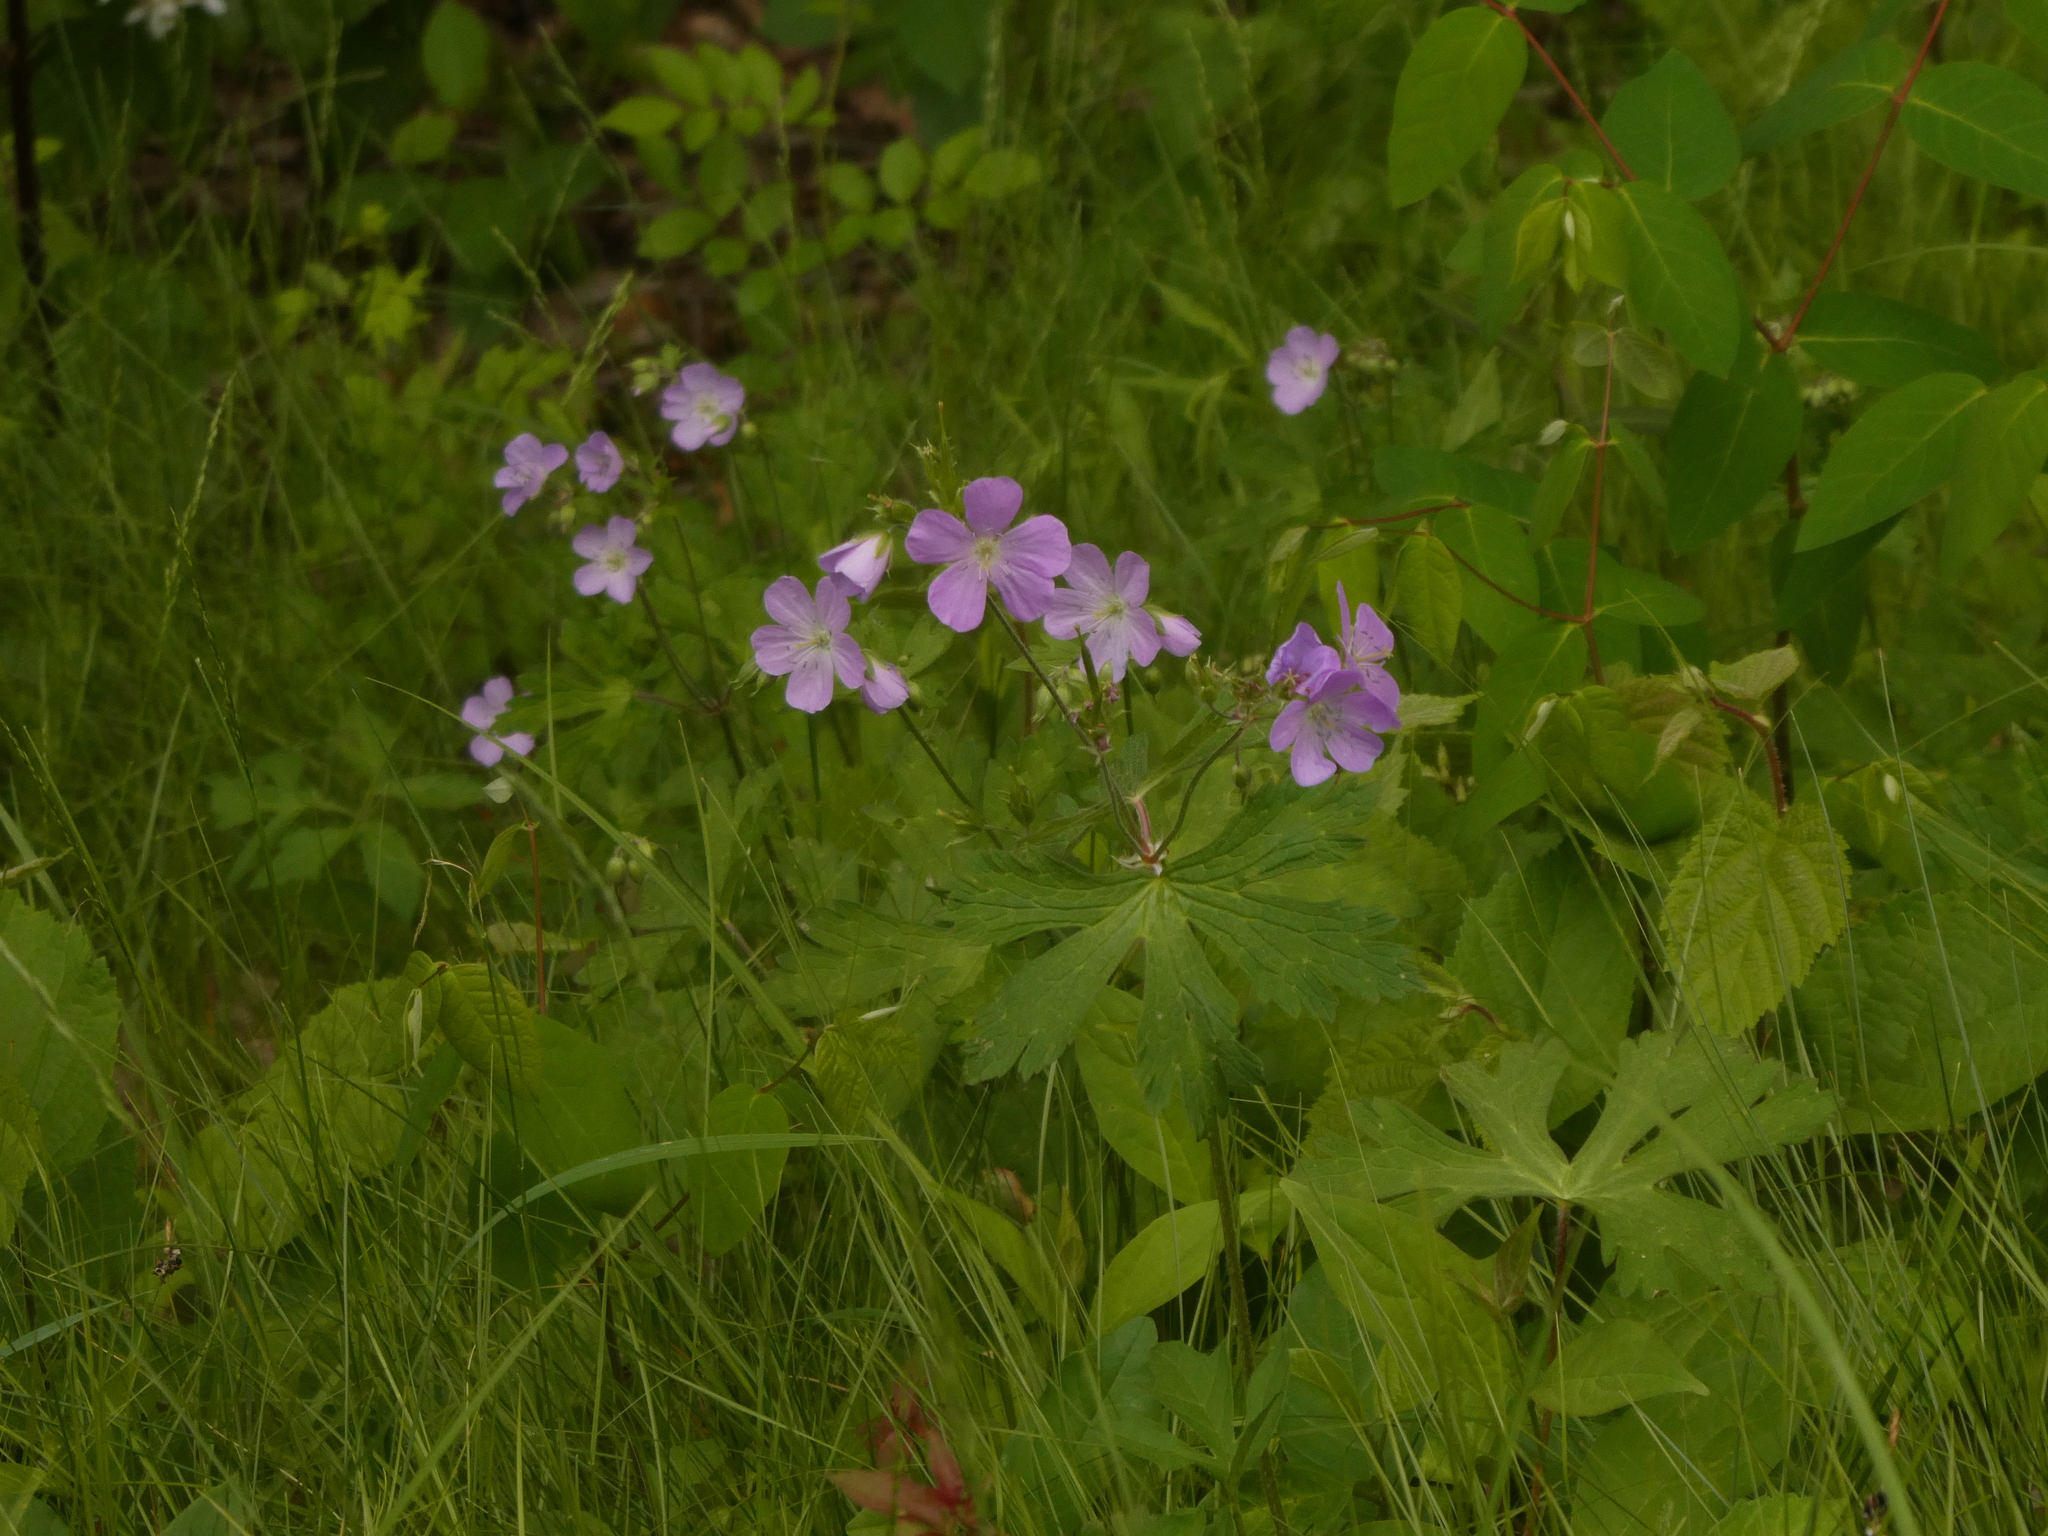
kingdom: Plantae
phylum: Tracheophyta
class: Magnoliopsida
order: Geraniales
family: Geraniaceae
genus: Geranium
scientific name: Geranium maculatum
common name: Spotted geranium
